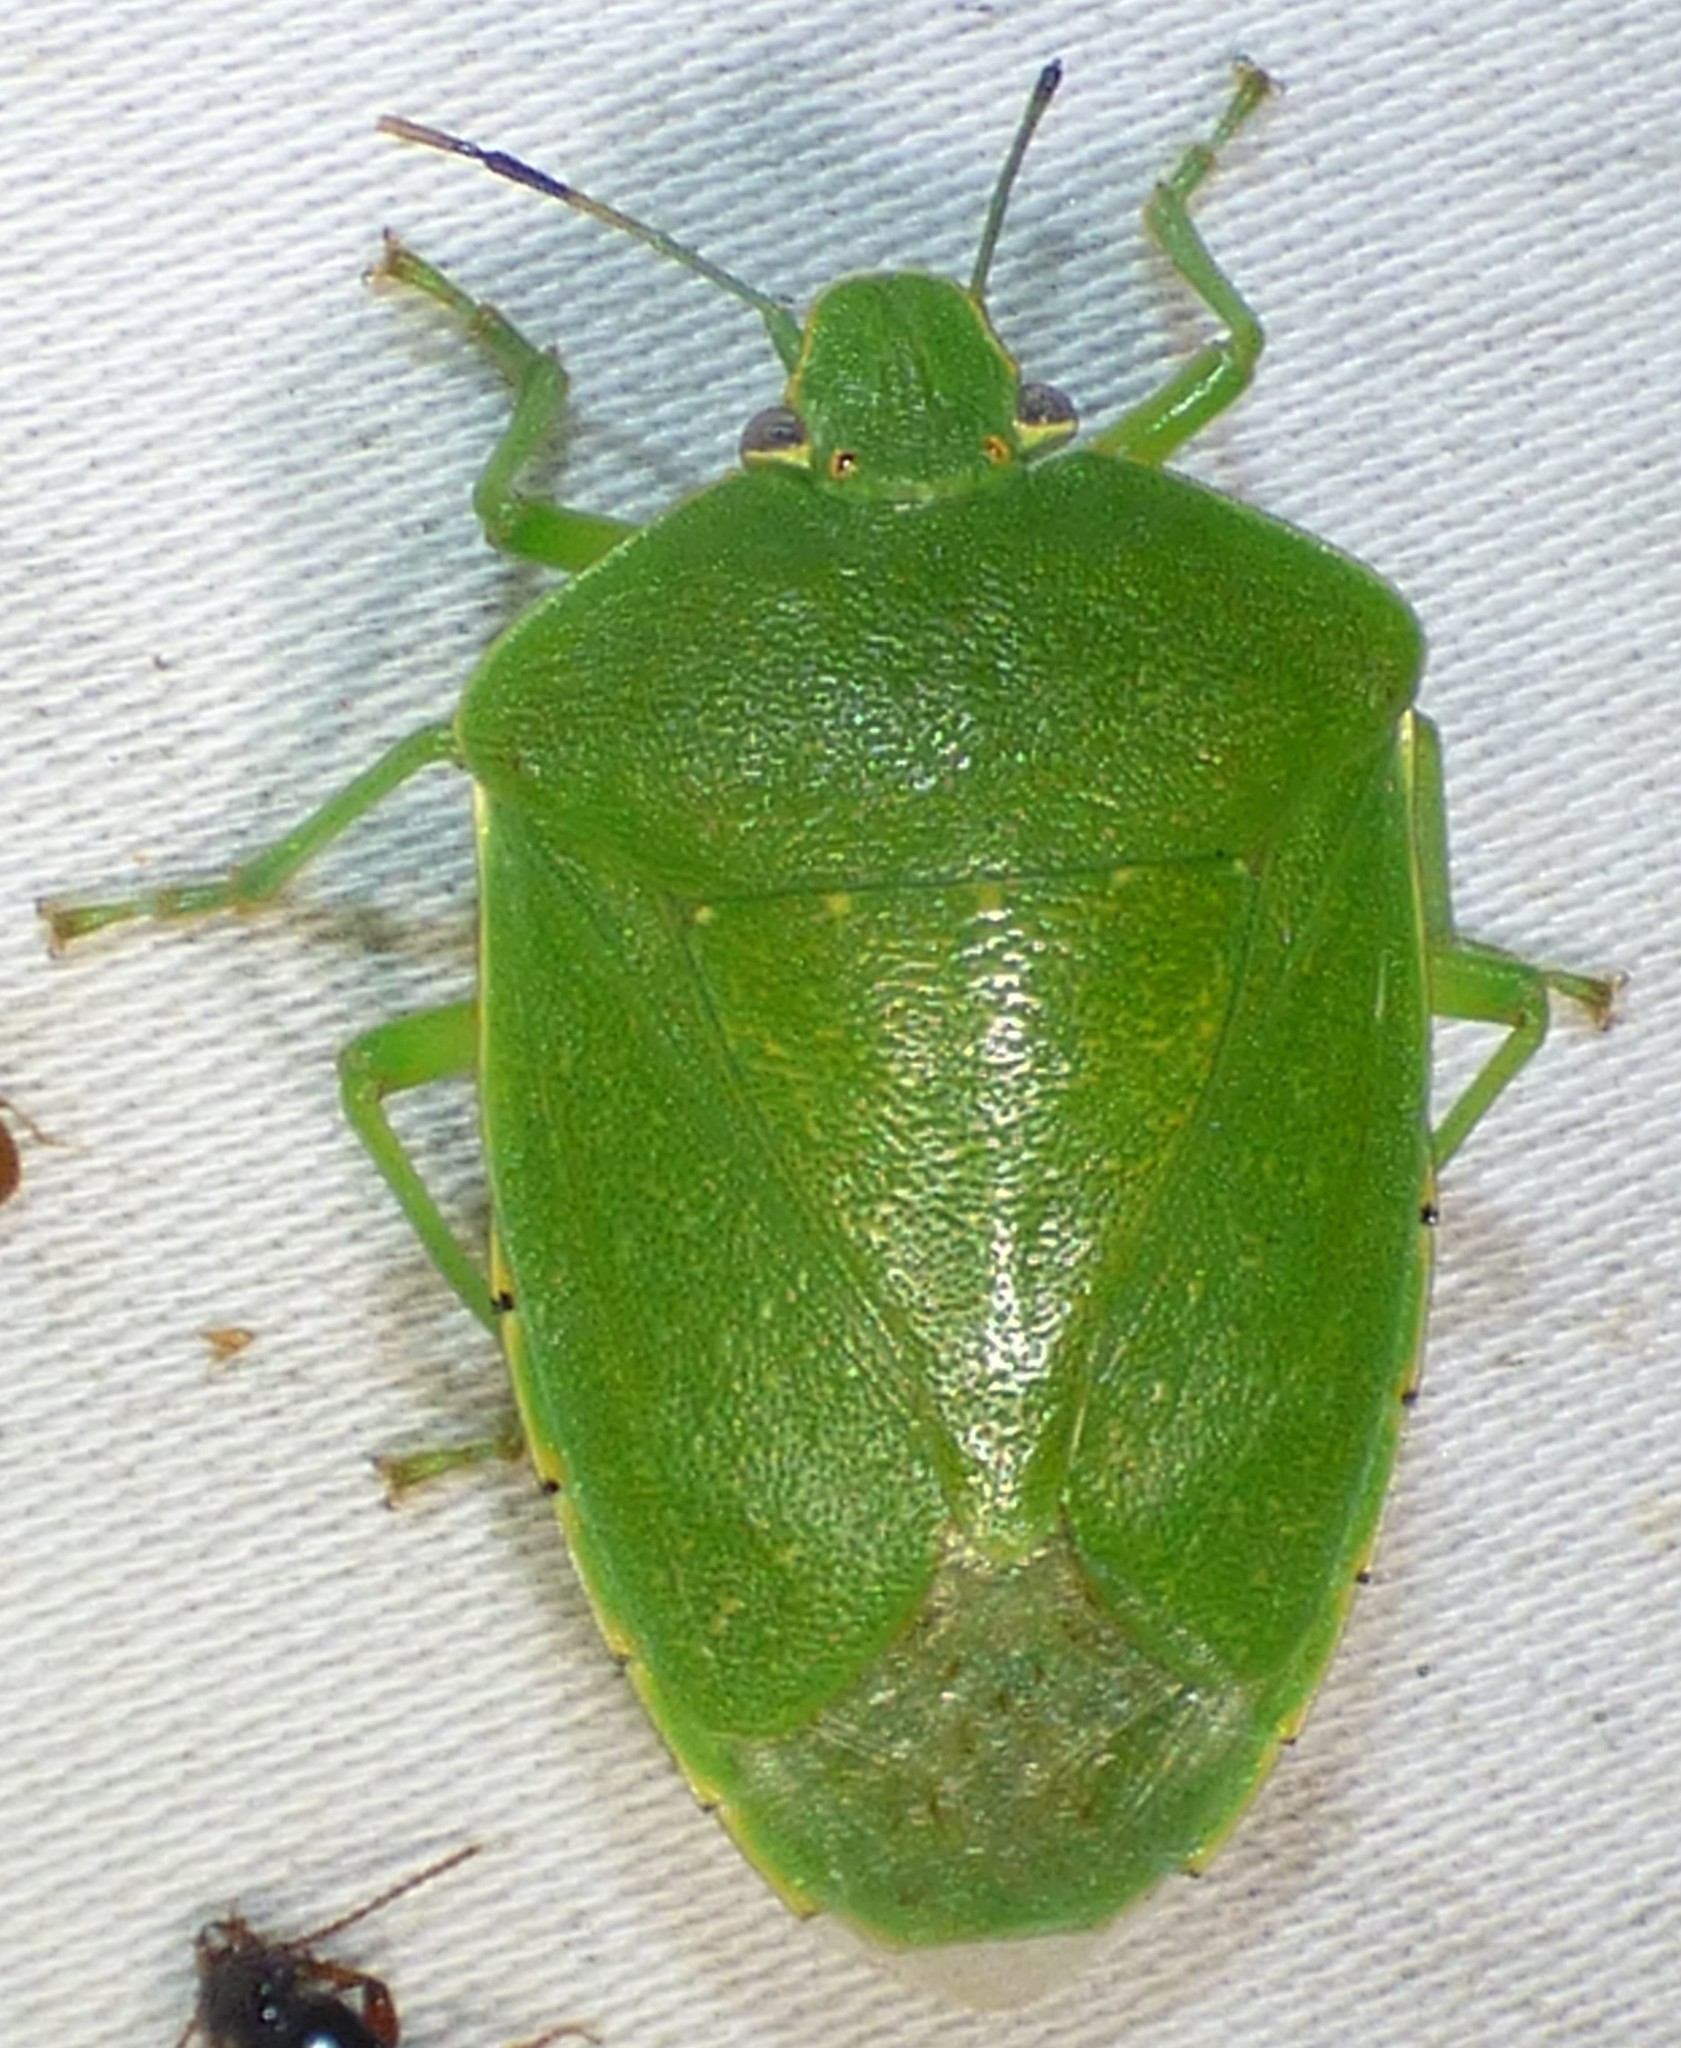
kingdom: Animalia
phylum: Arthropoda
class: Insecta
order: Hemiptera
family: Pentatomidae
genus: Chinavia
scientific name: Chinavia hilaris
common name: Green stink bug
